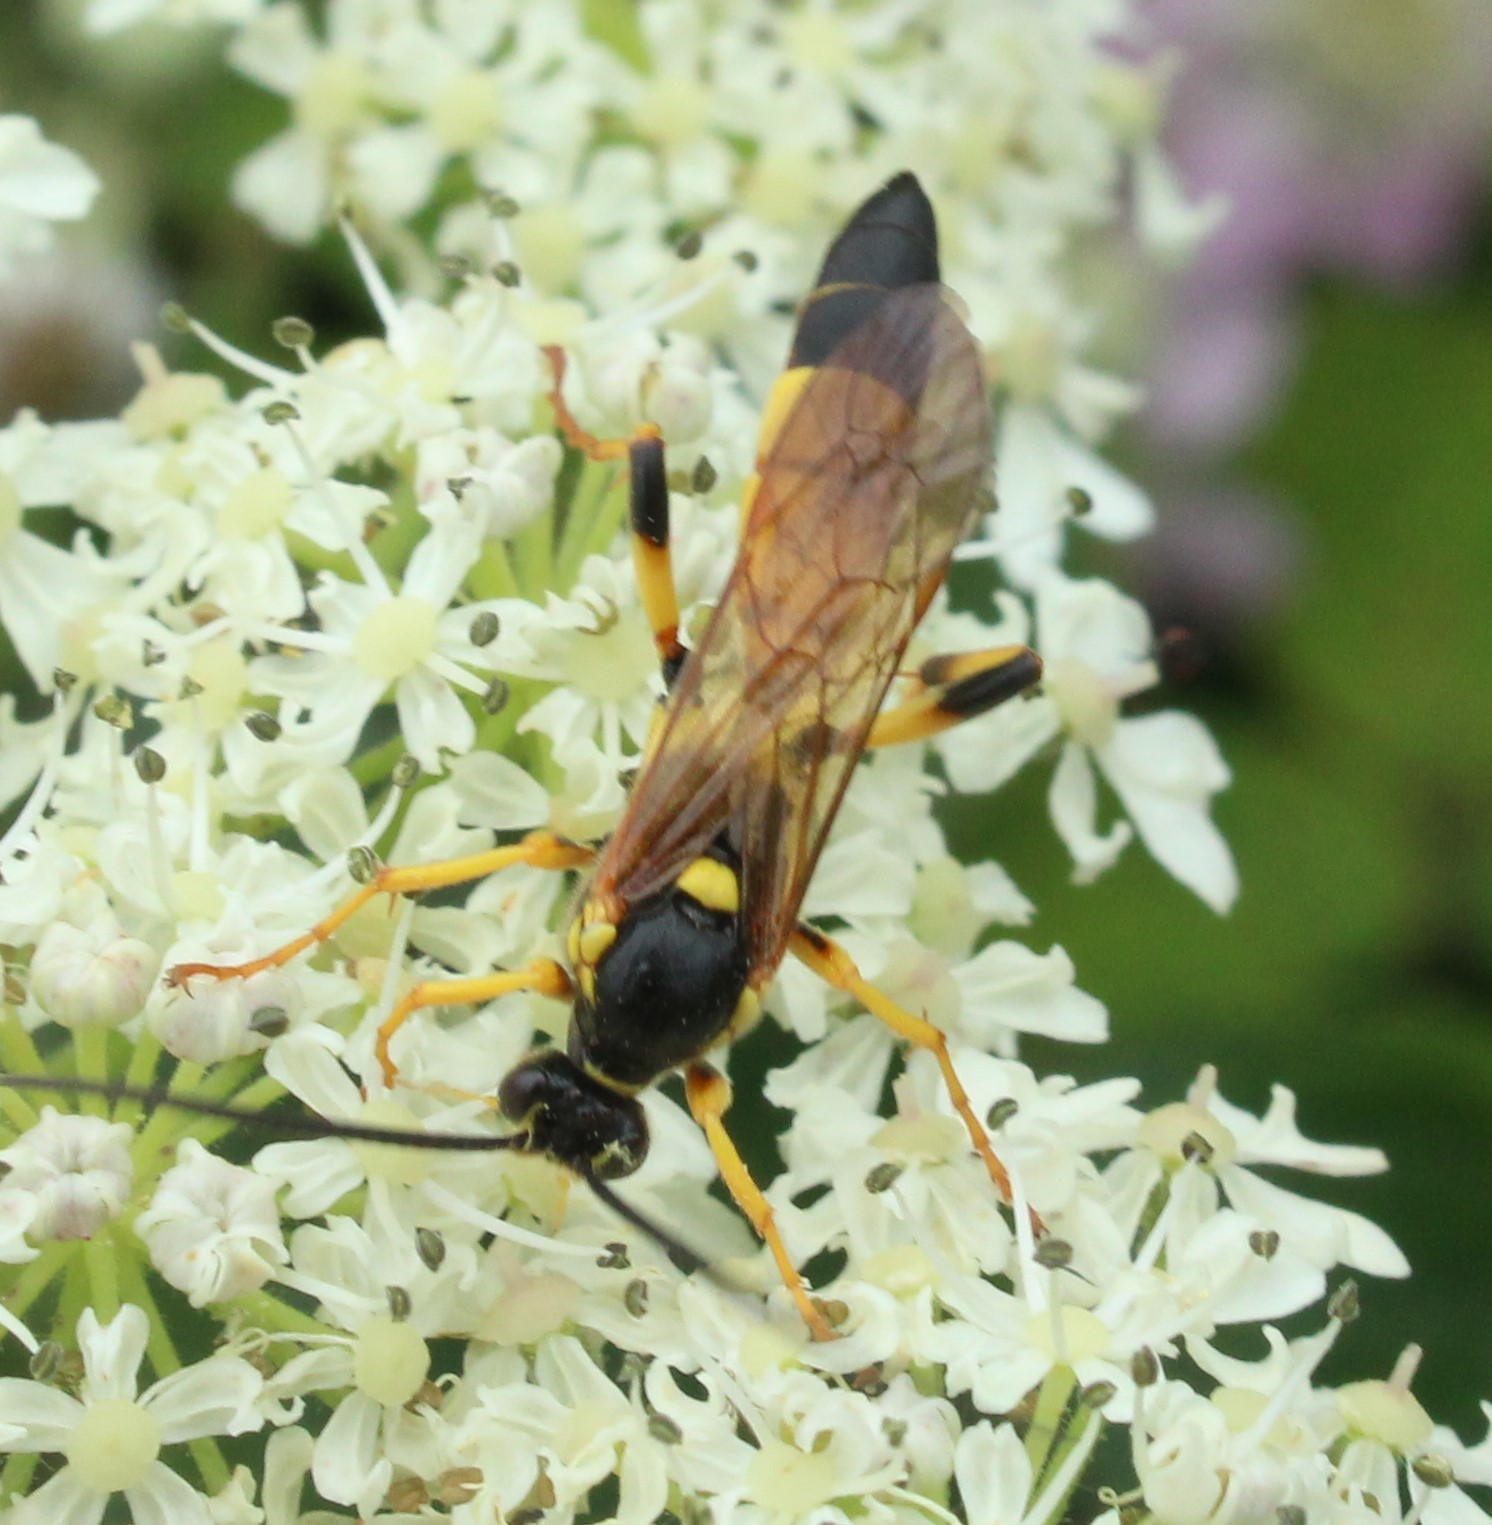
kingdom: Animalia
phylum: Arthropoda
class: Insecta
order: Hymenoptera
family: Ichneumonidae
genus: Ichneumon
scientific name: Ichneumon xanthorius
